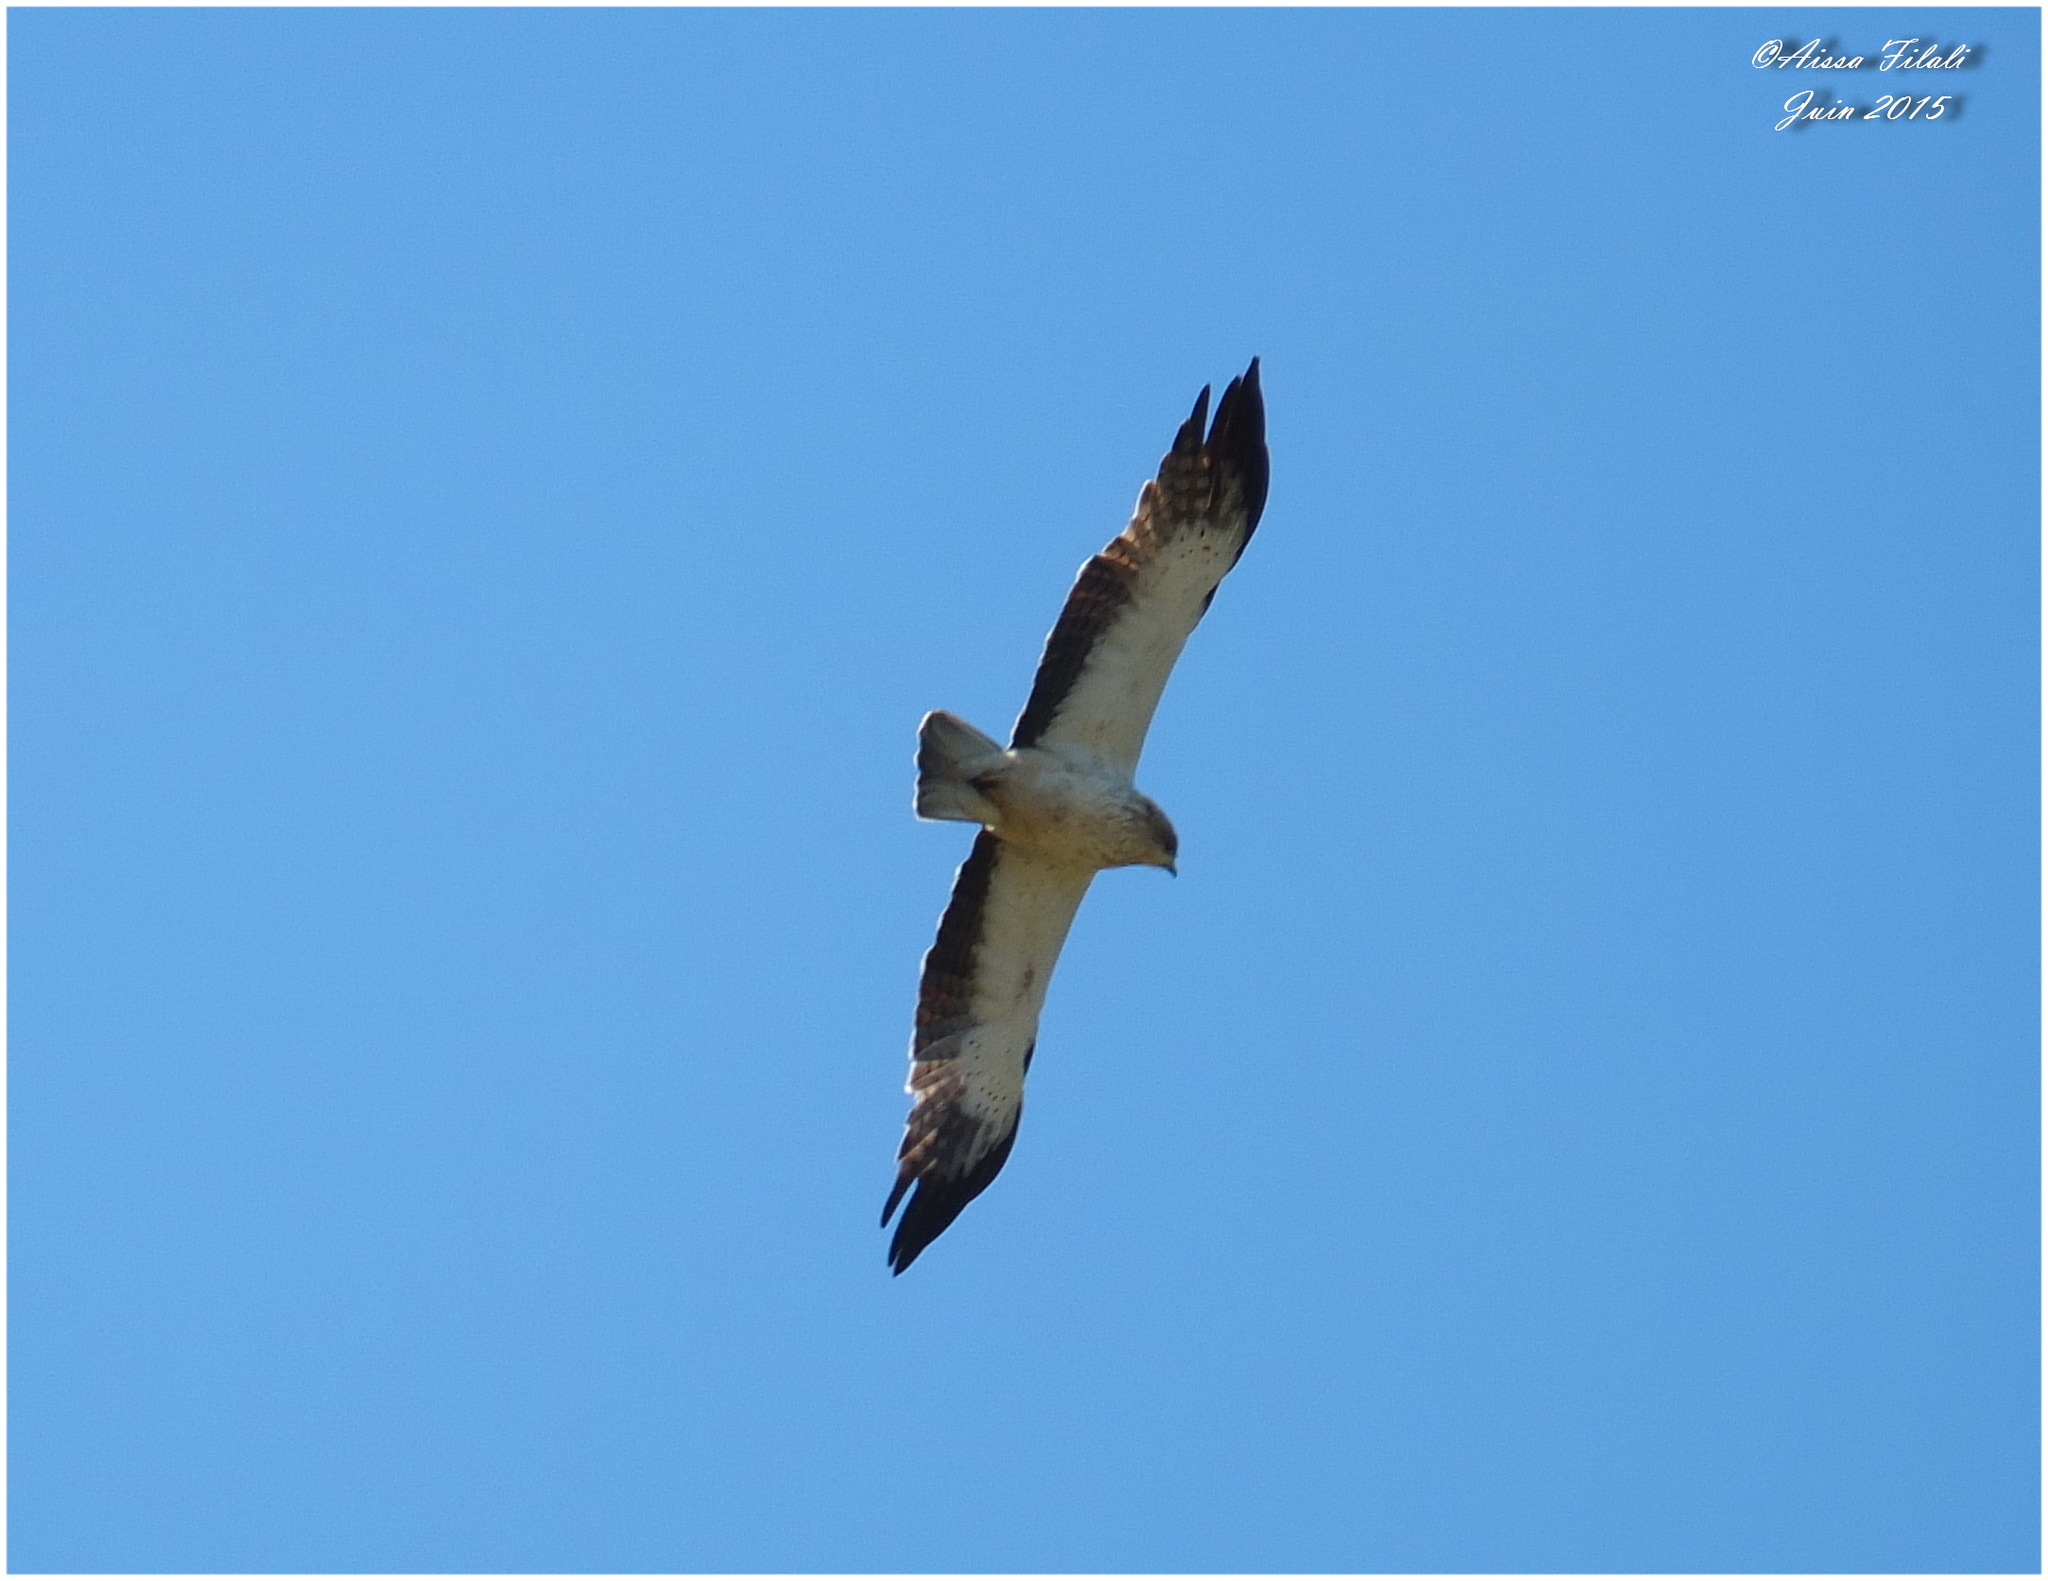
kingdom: Animalia
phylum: Chordata
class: Aves
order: Accipitriformes
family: Accipitridae
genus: Hieraaetus
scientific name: Hieraaetus pennatus
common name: Booted eagle
